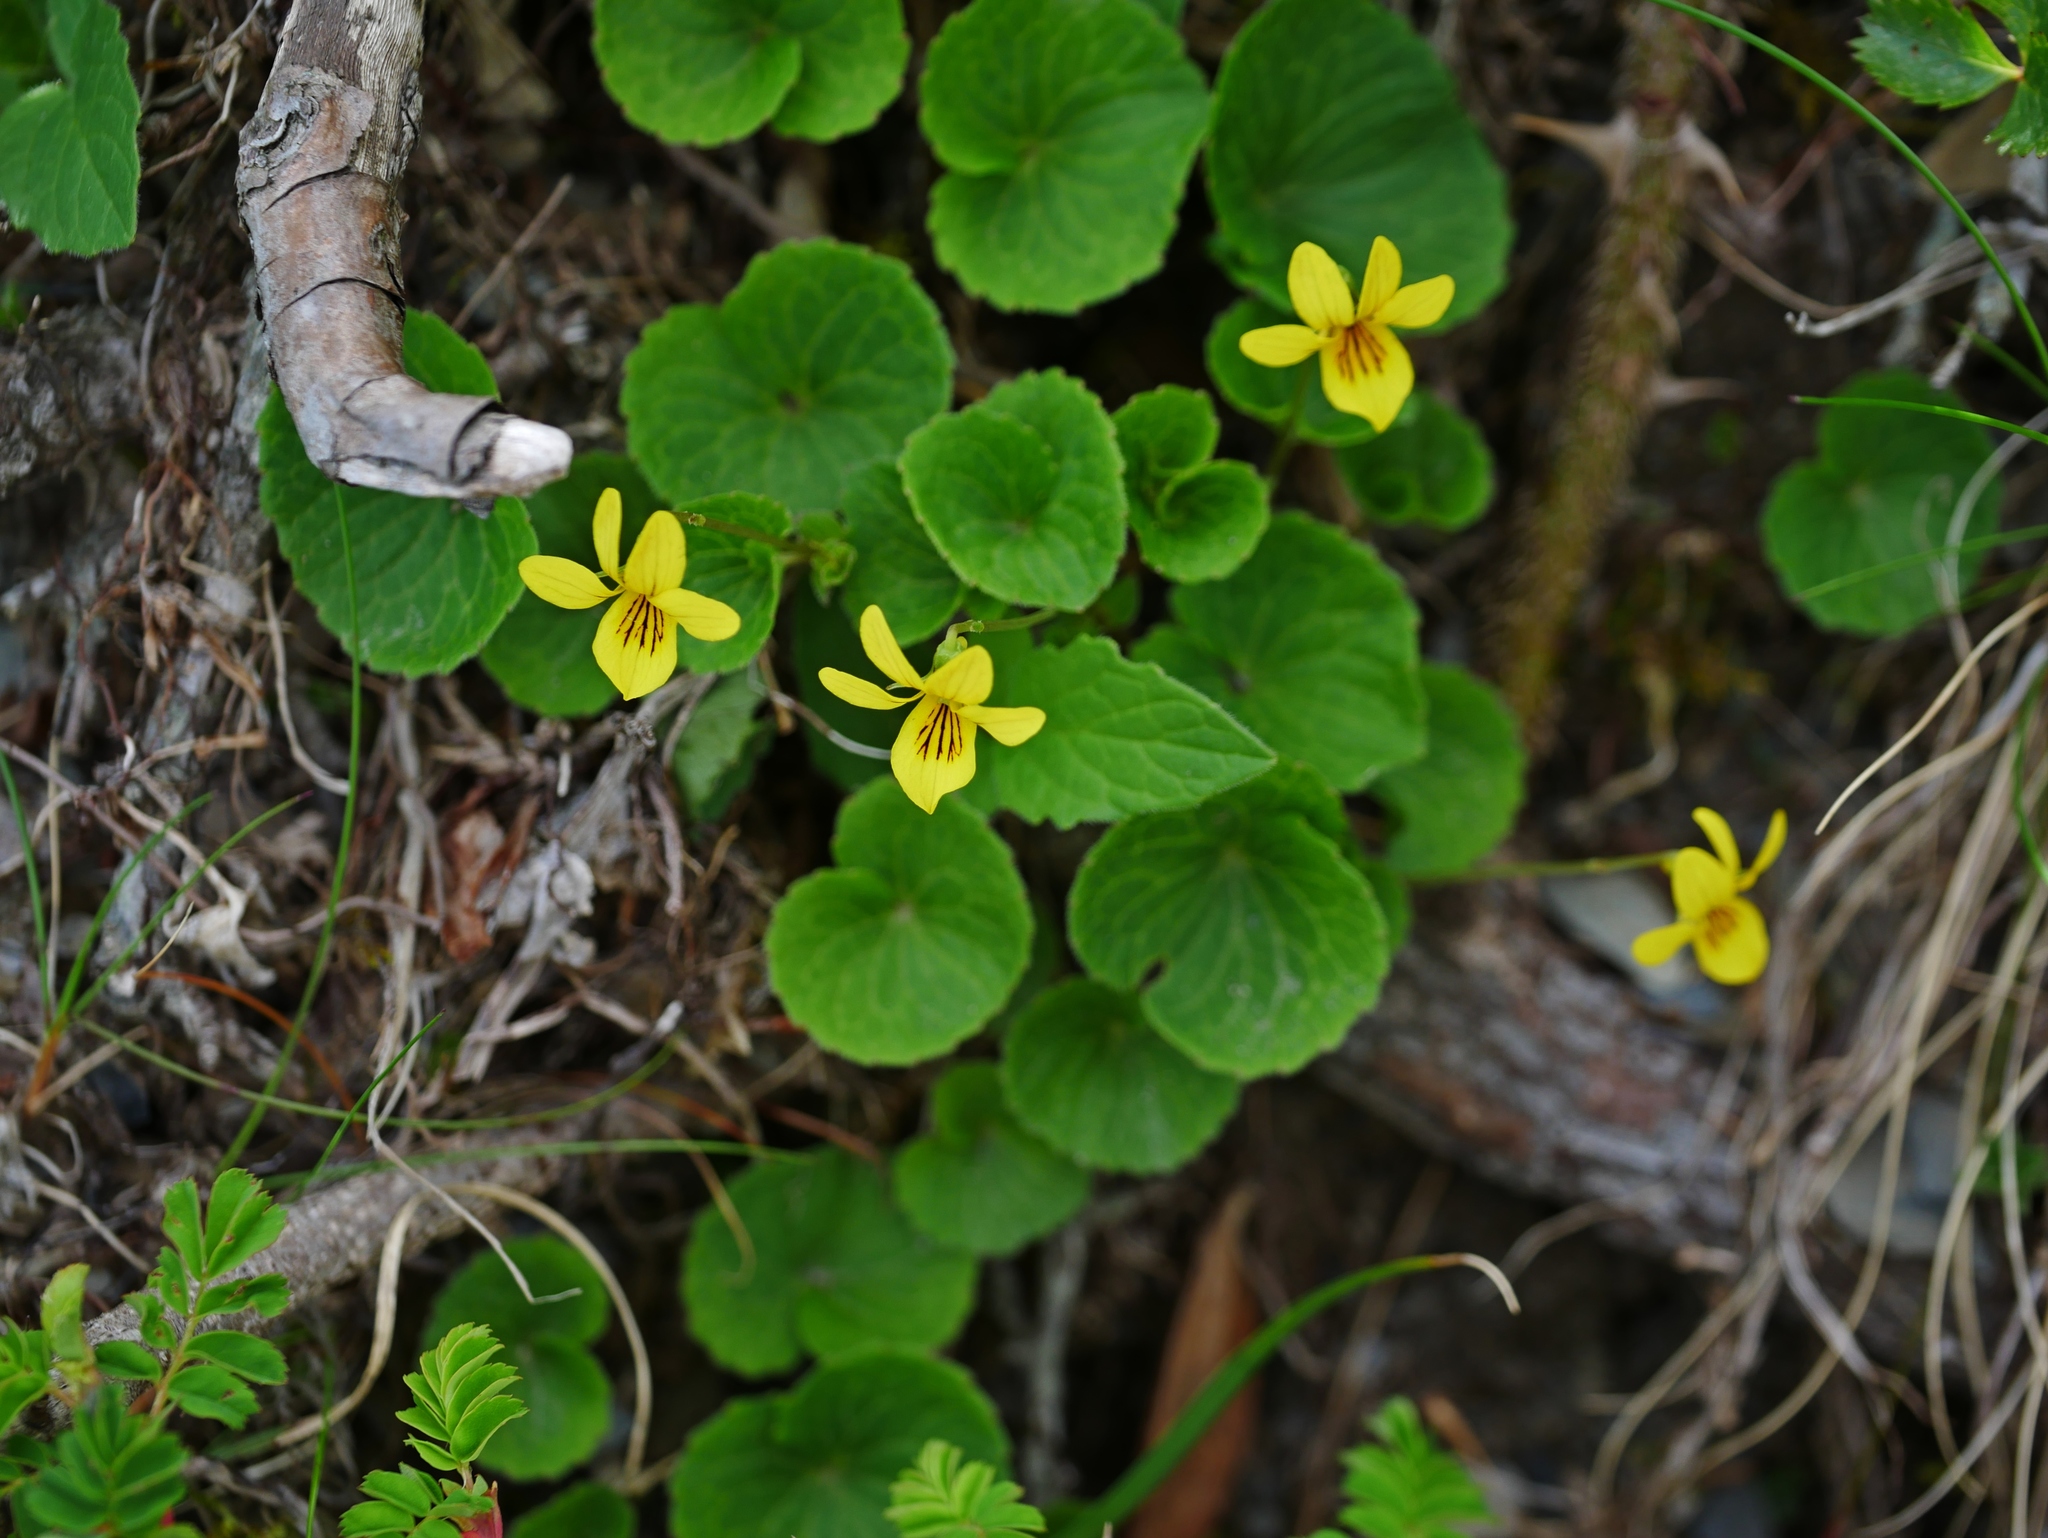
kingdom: Plantae
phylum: Tracheophyta
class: Magnoliopsida
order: Malpighiales
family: Violaceae
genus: Viola
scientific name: Viola biflora
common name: Alpine yellow violet
